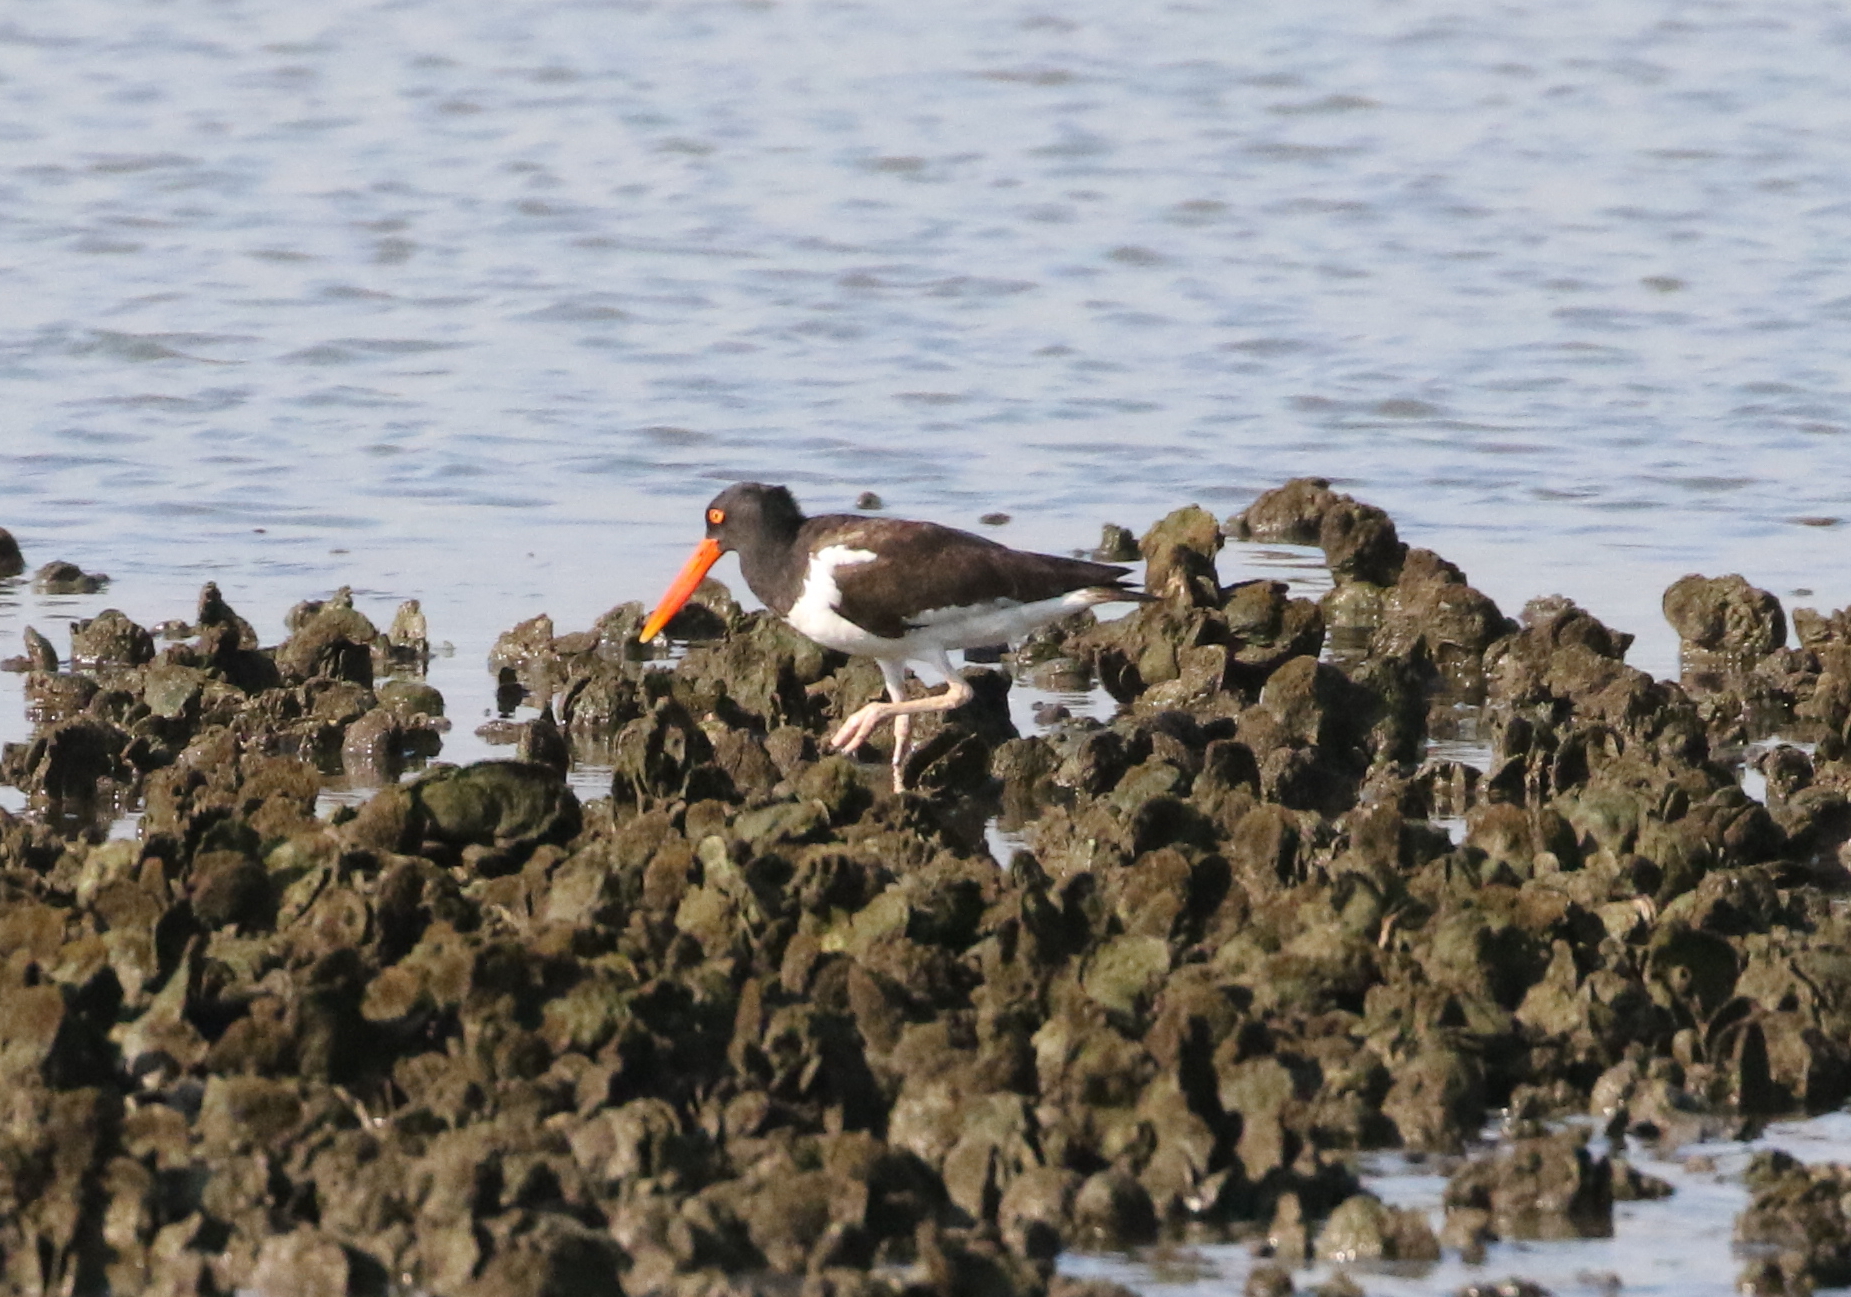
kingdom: Animalia
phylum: Chordata
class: Aves
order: Charadriiformes
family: Haematopodidae
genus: Haematopus
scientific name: Haematopus palliatus
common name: American oystercatcher
